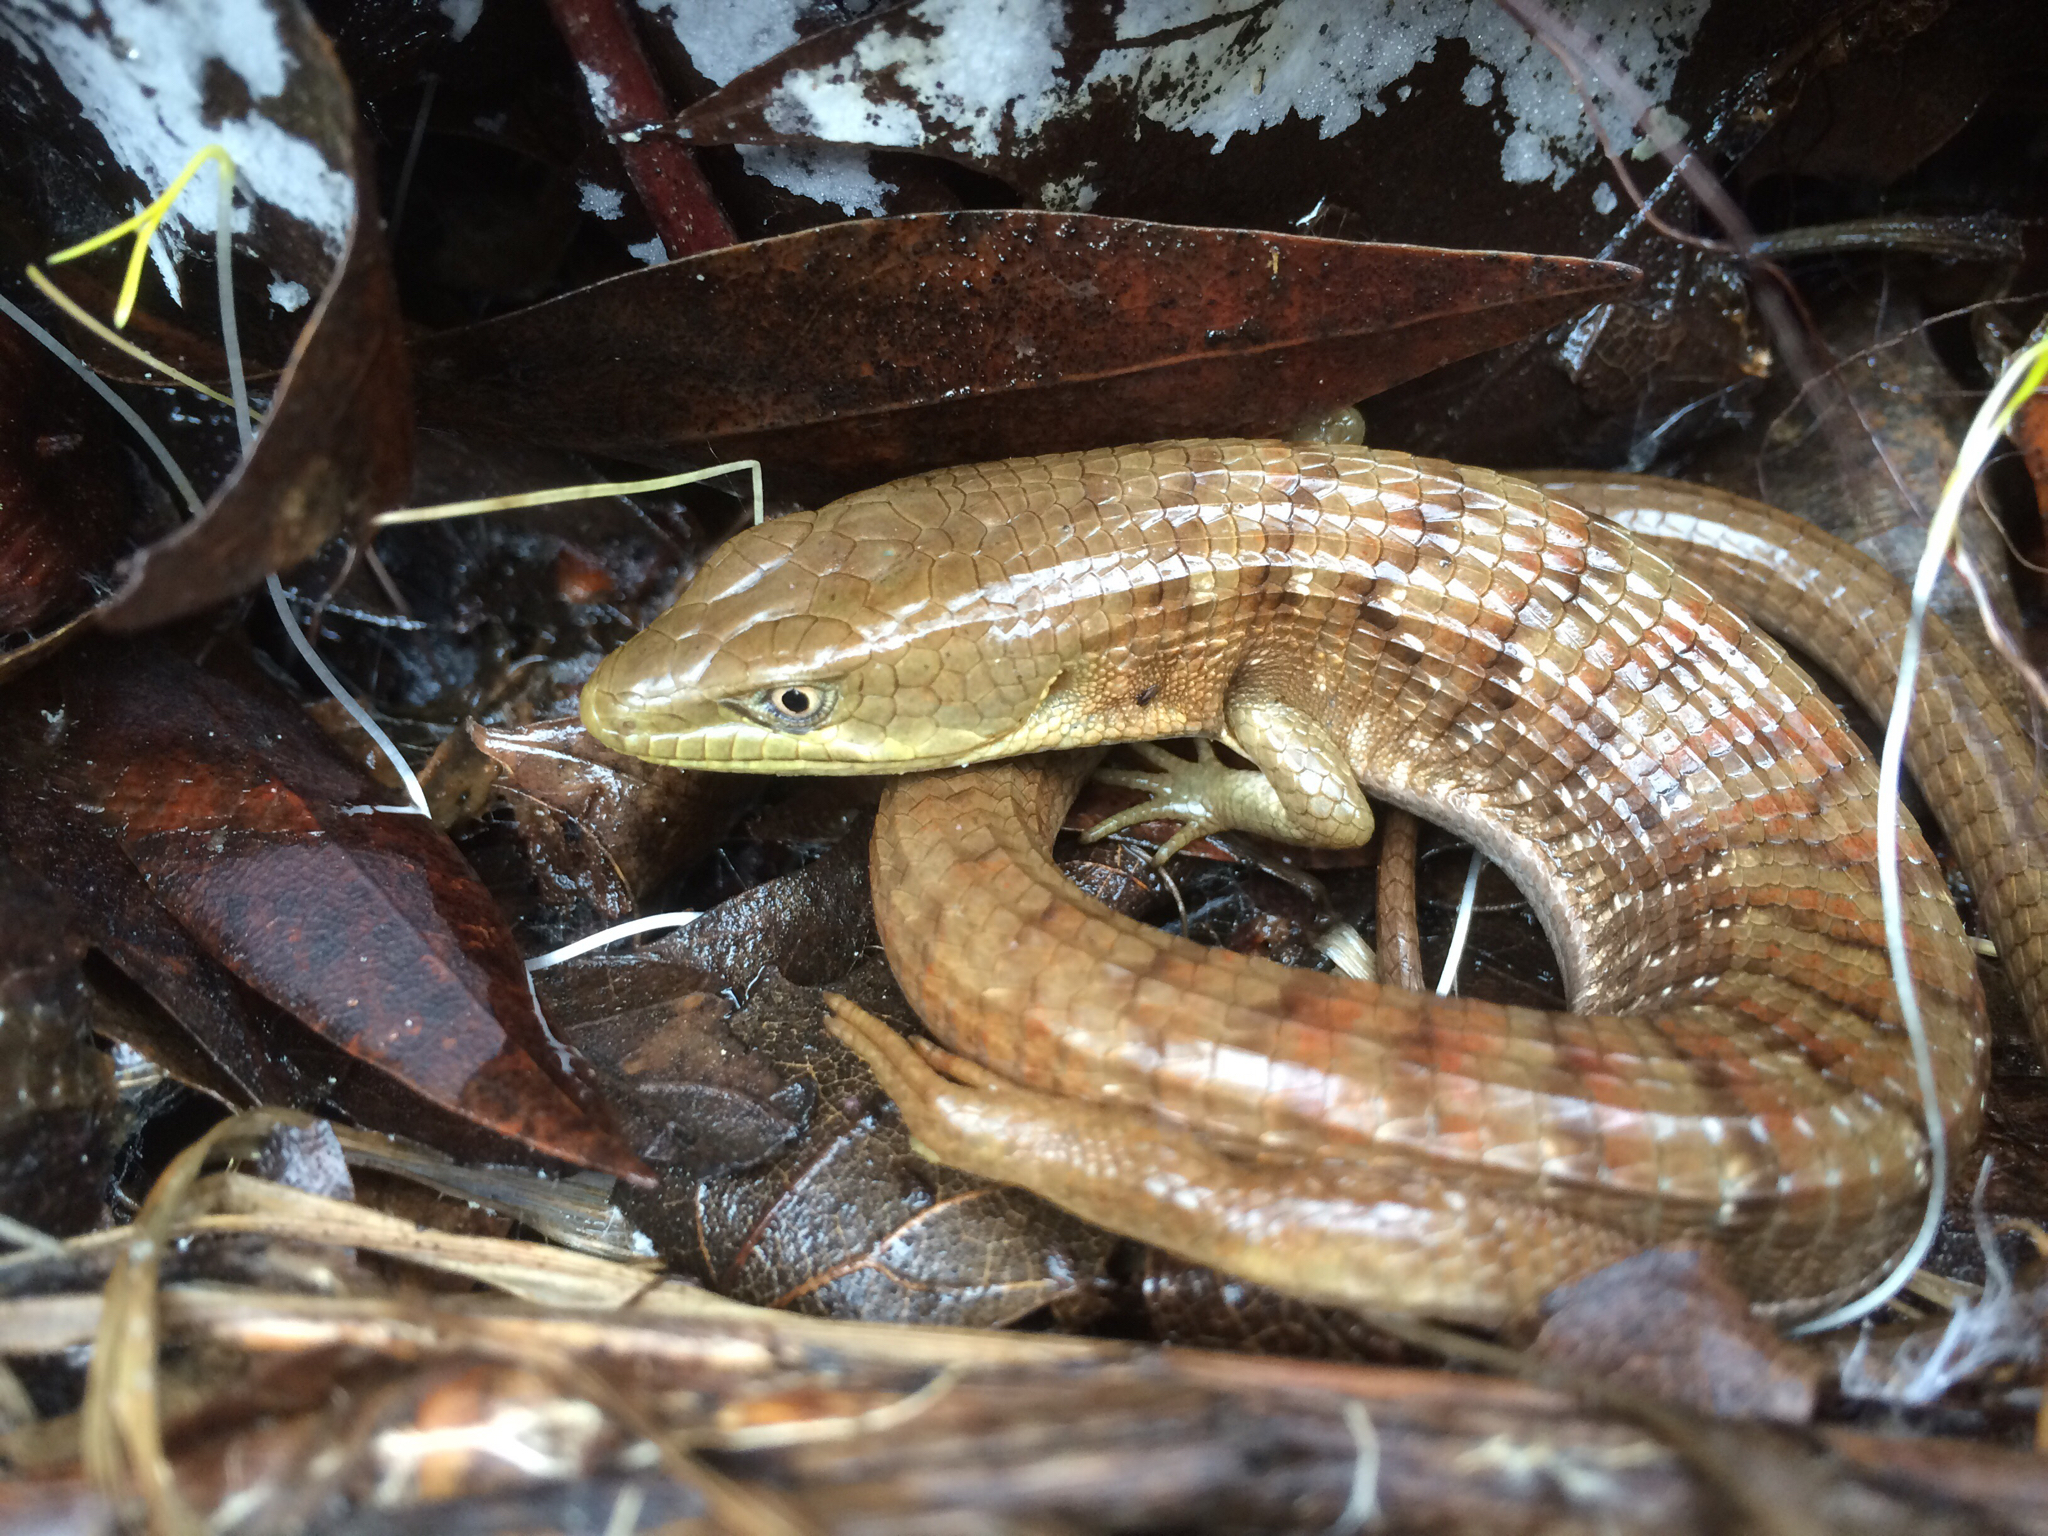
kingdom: Animalia
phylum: Chordata
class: Squamata
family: Anguidae
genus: Elgaria
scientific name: Elgaria multicarinata
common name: Southern alligator lizard
